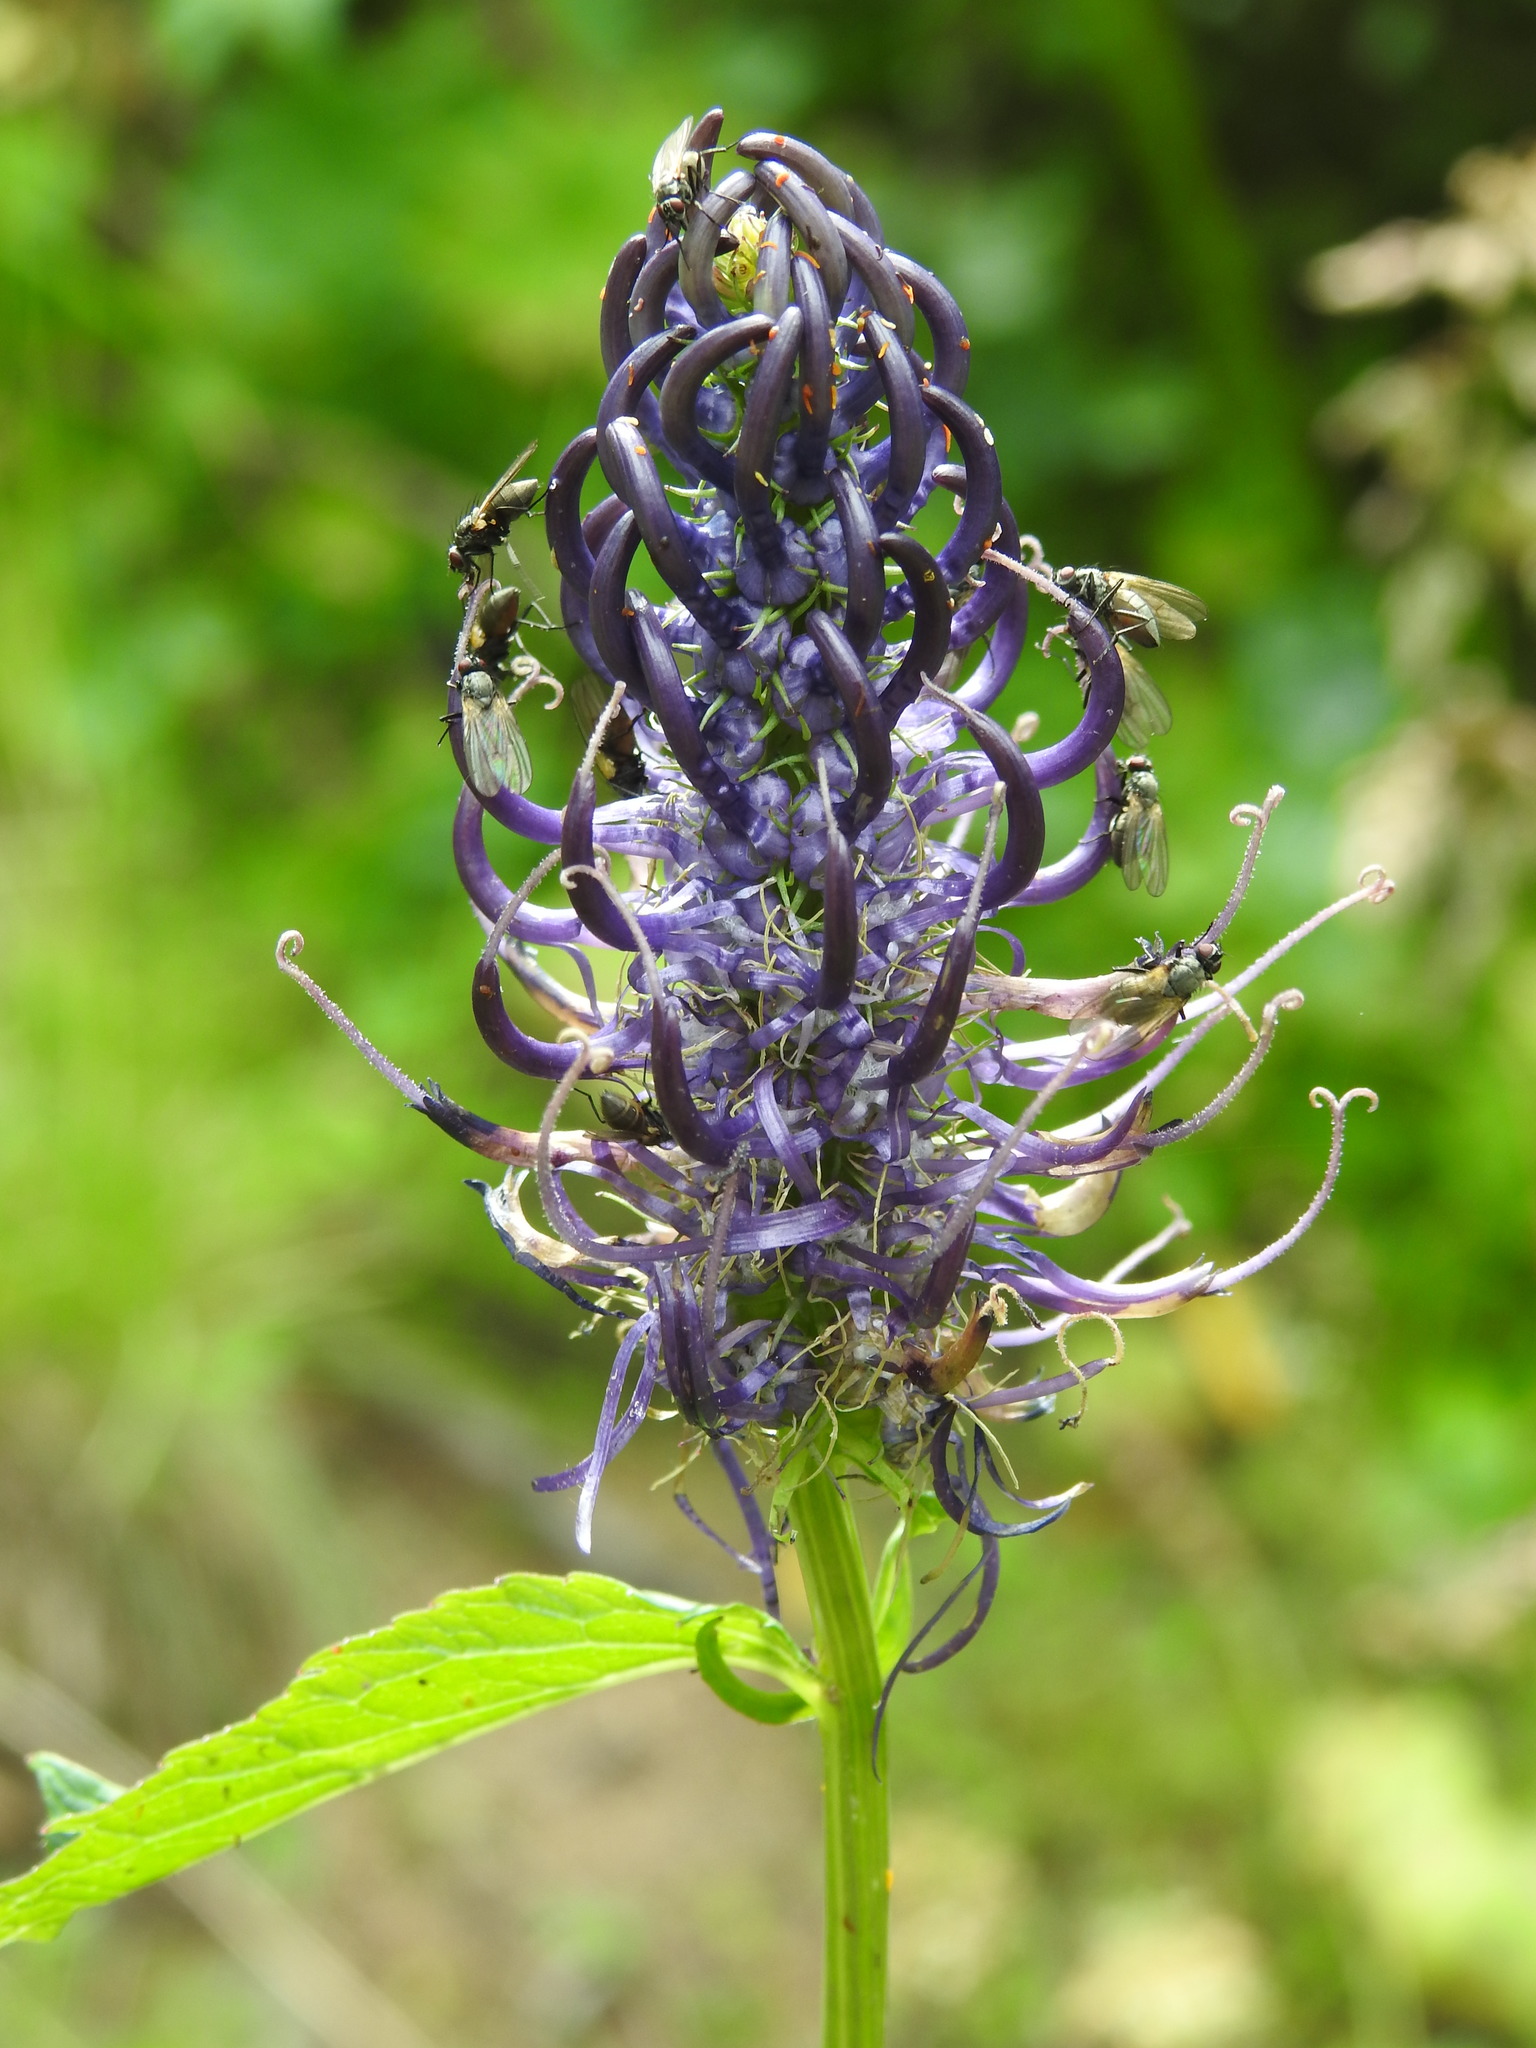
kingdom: Plantae
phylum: Tracheophyta
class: Magnoliopsida
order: Asterales
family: Campanulaceae
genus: Phyteuma
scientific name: Phyteuma ovatum
